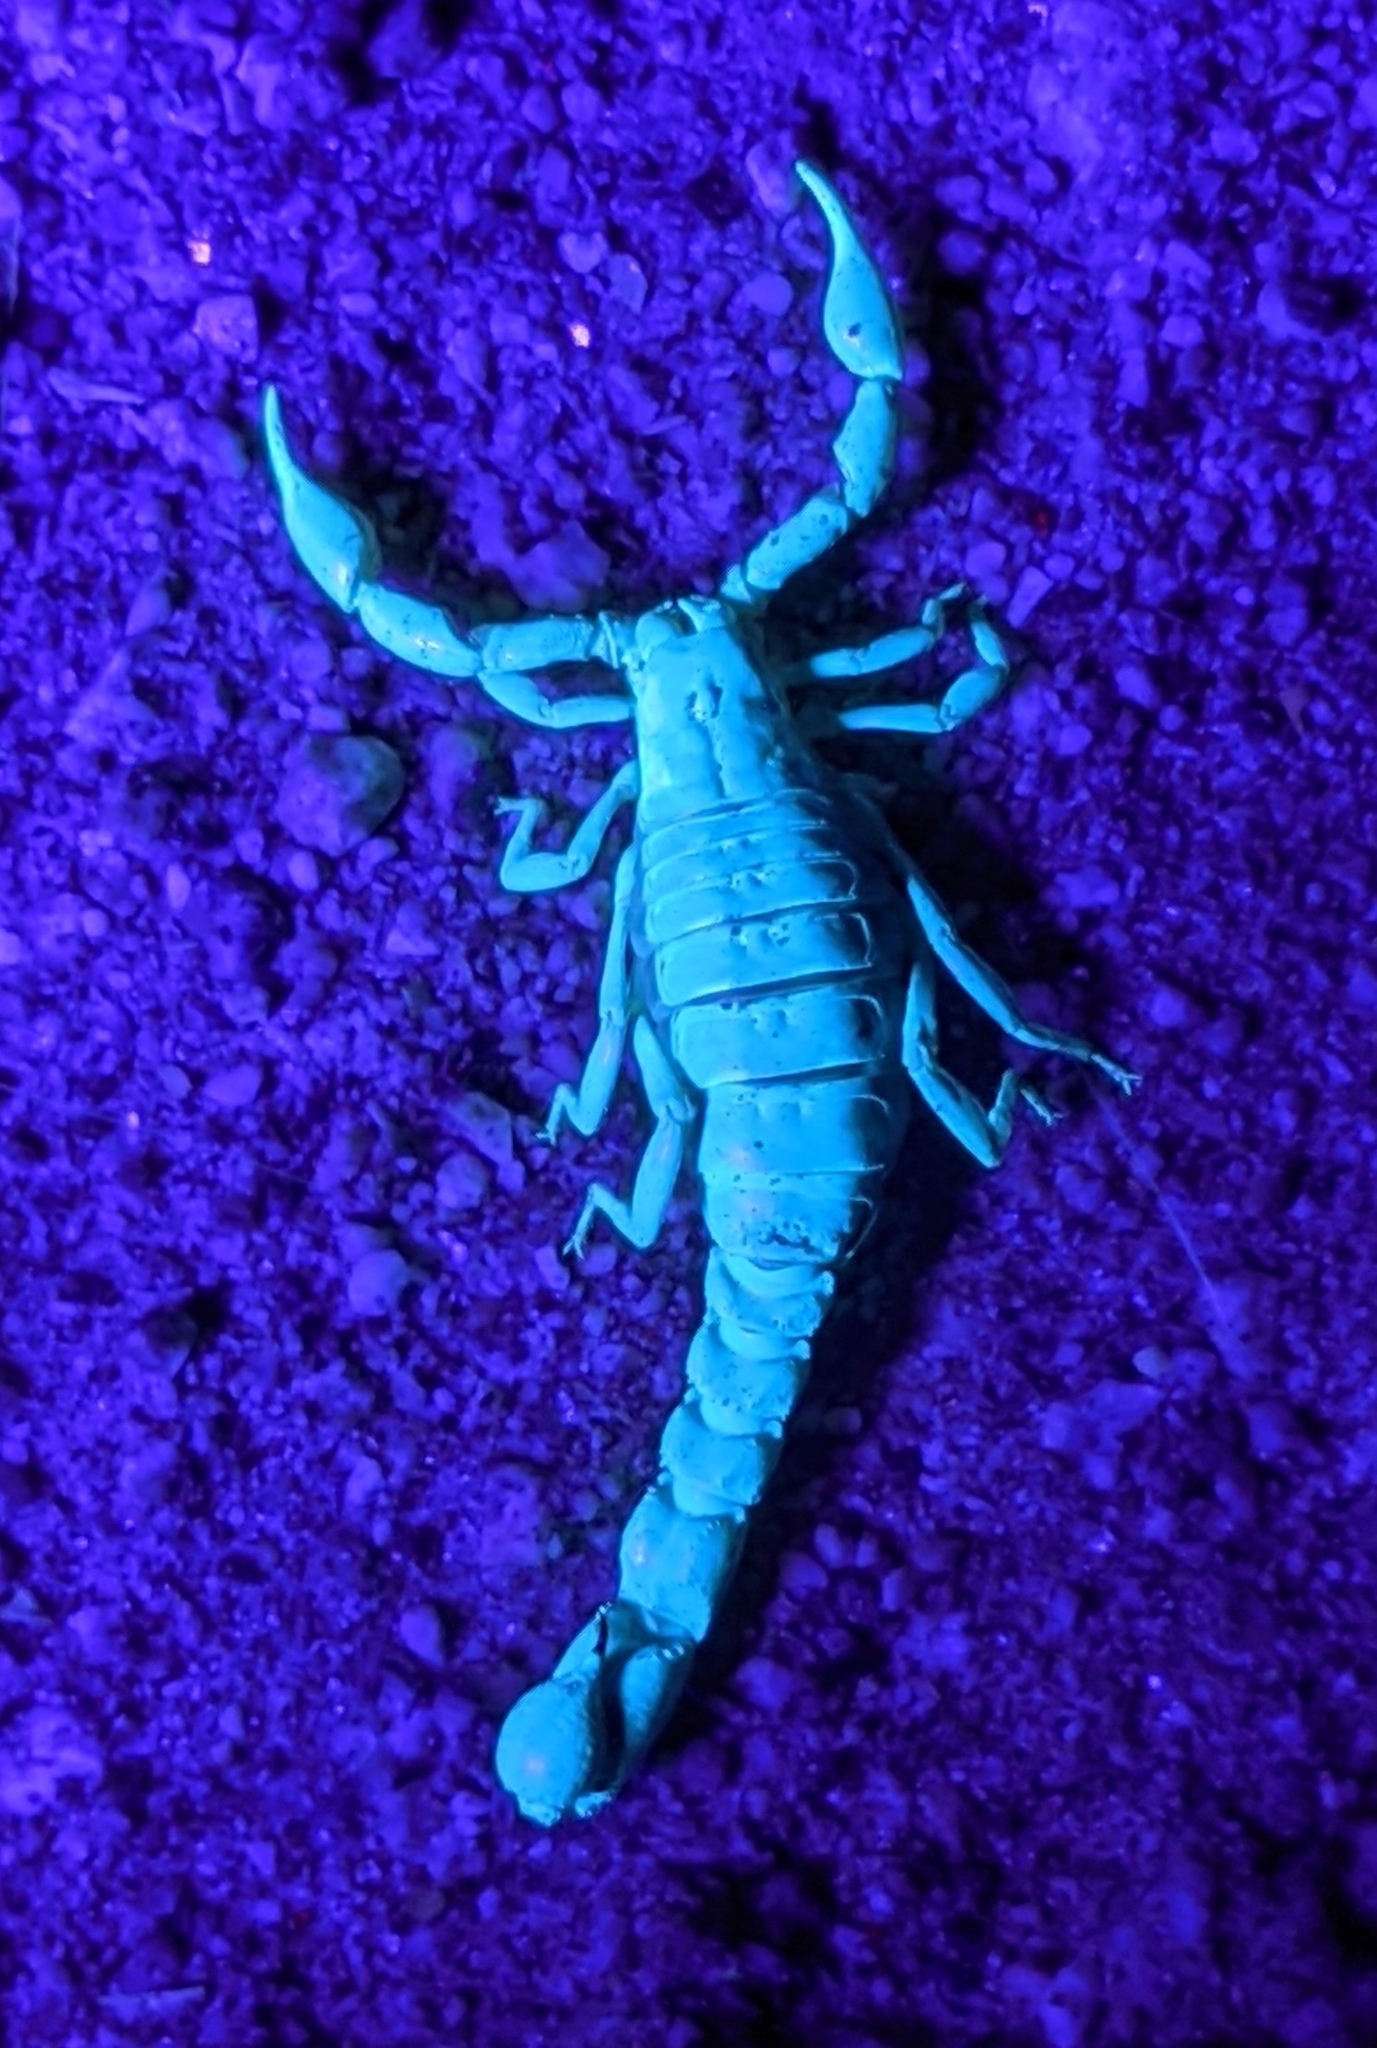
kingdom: Animalia
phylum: Arthropoda
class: Arachnida
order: Scorpiones
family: Superstitioniidae
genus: Superstitionia
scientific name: Superstitionia donensis
